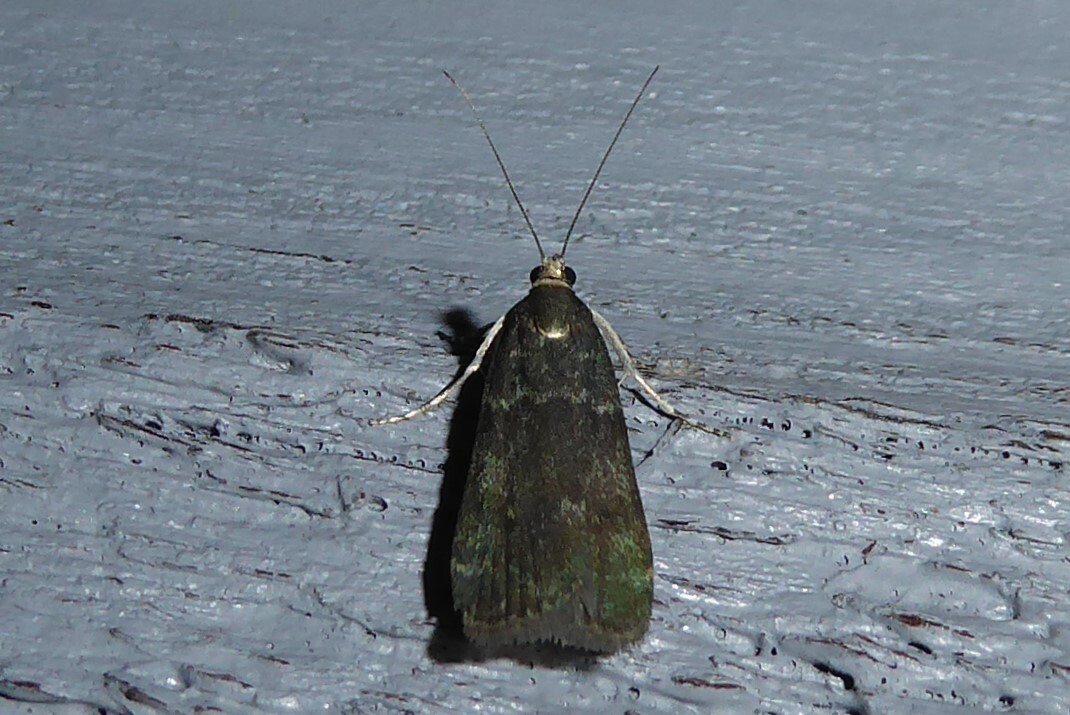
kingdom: Animalia
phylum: Arthropoda
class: Insecta
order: Lepidoptera
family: Crambidae
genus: Eudonia
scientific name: Eudonia cataxesta
